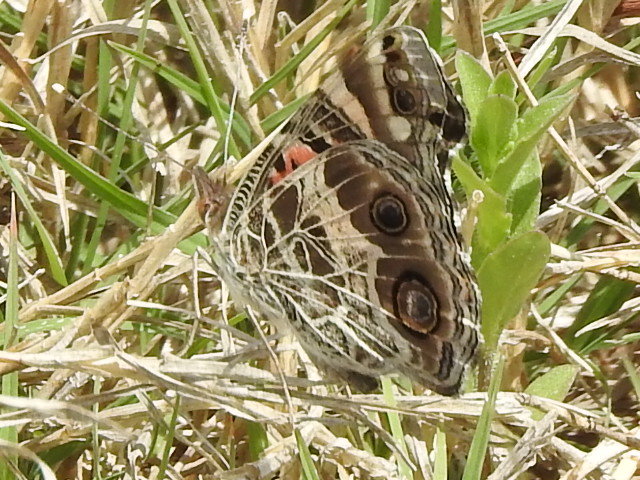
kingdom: Animalia
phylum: Arthropoda
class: Insecta
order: Lepidoptera
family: Nymphalidae
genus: Vanessa
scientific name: Vanessa virginiensis
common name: American lady
